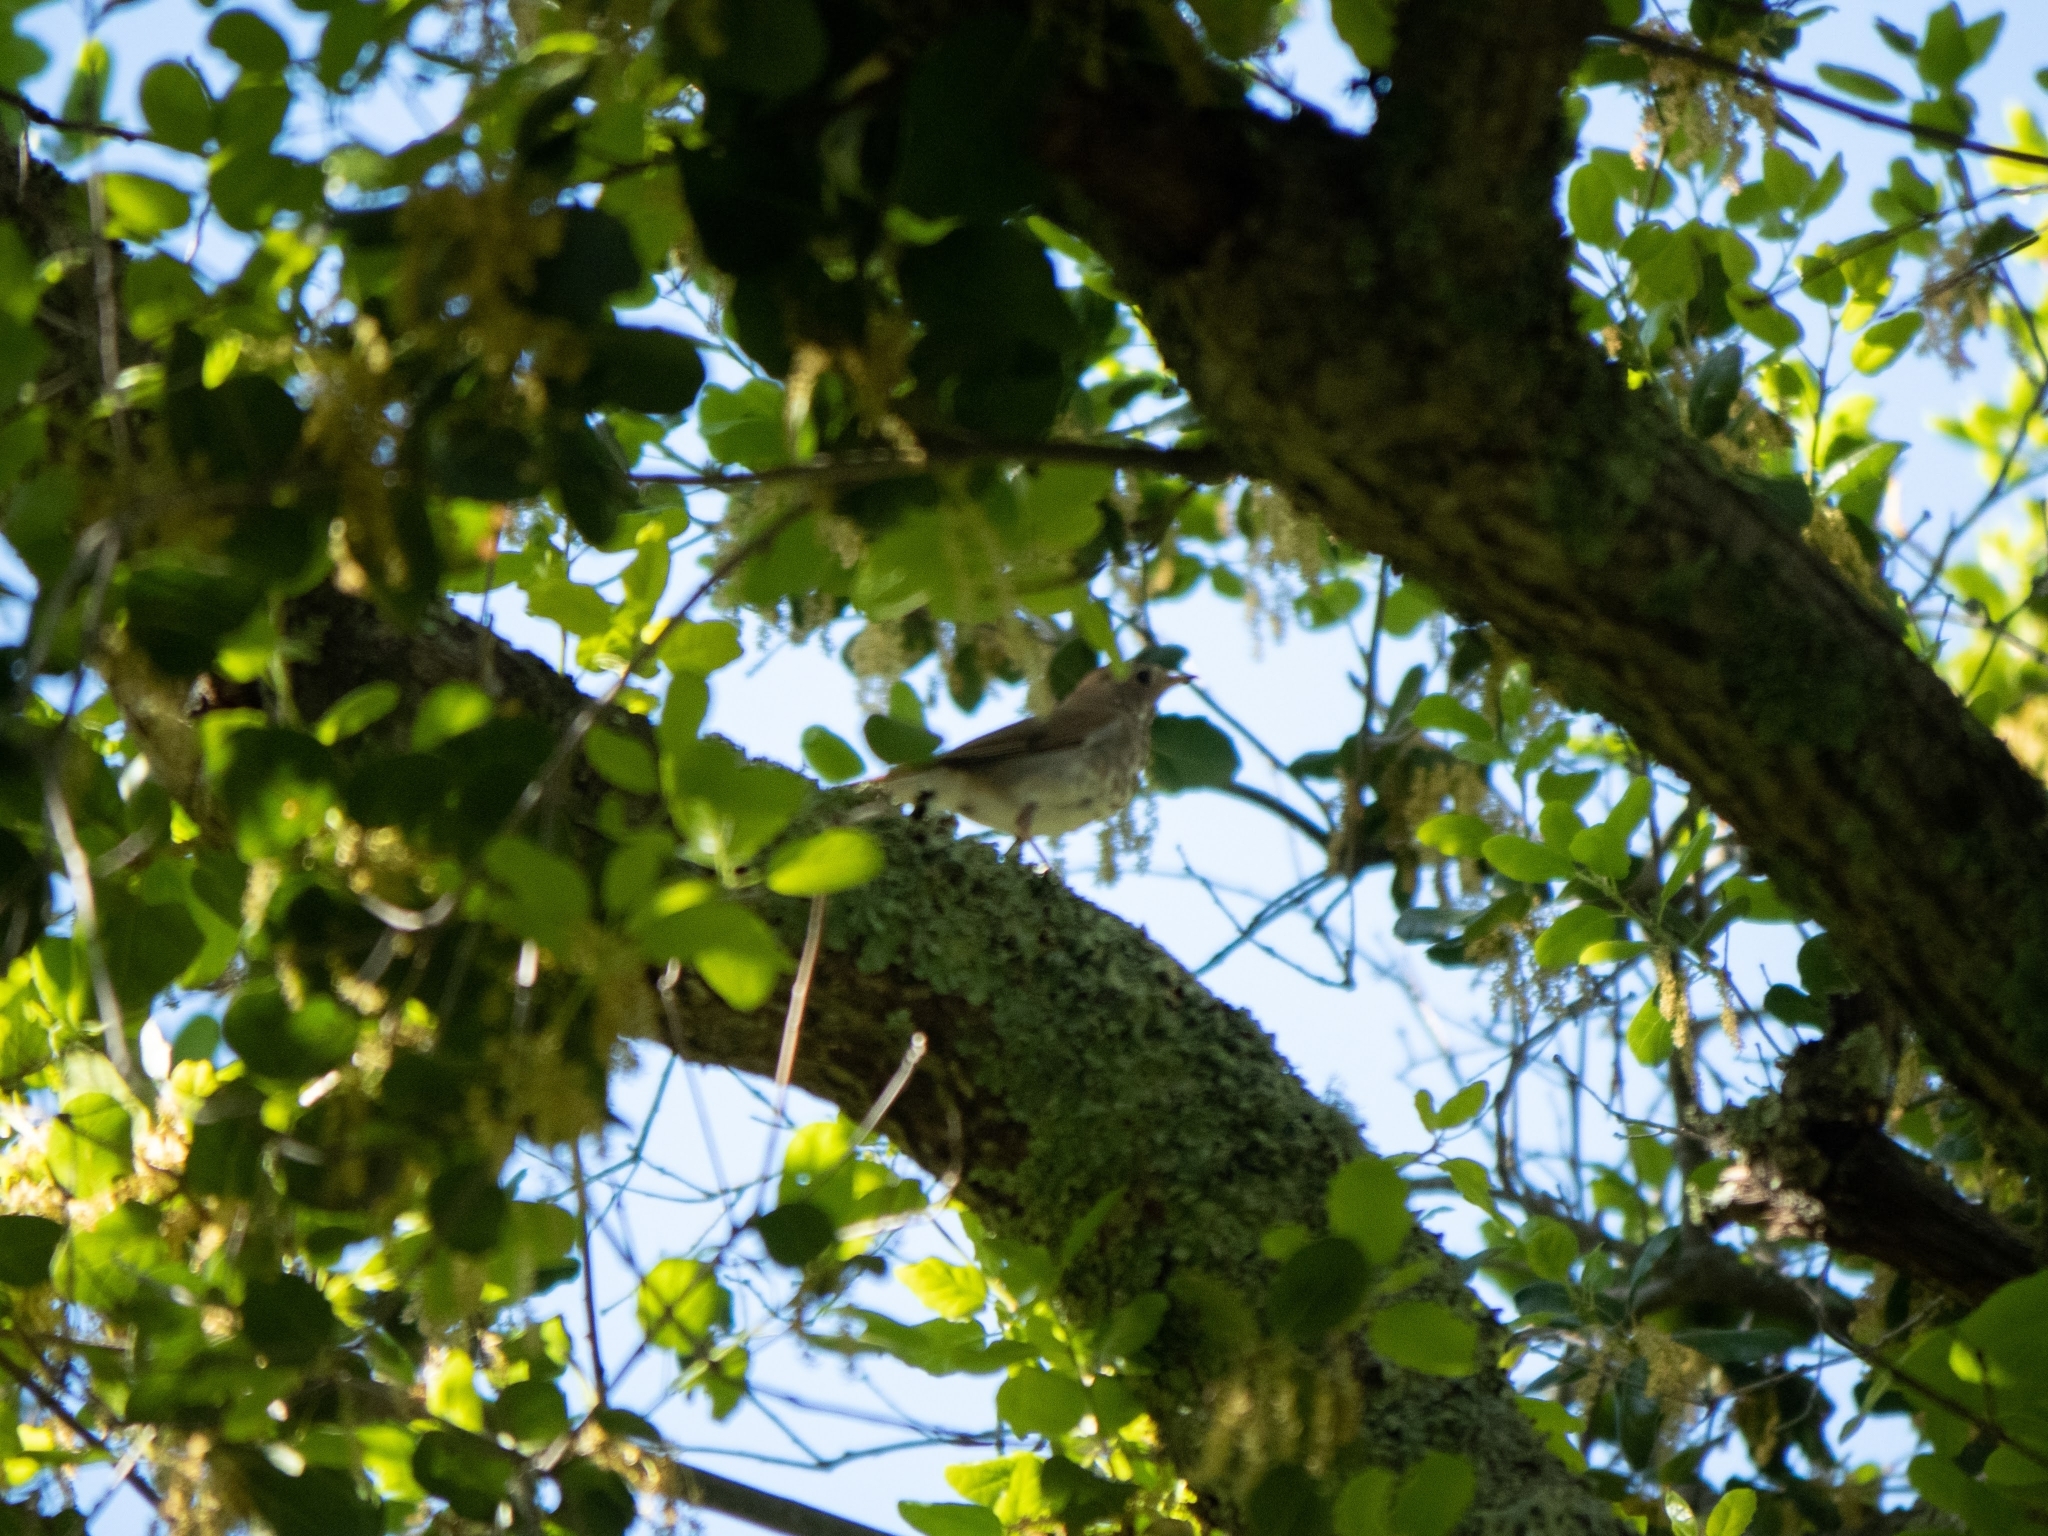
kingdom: Animalia
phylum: Chordata
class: Aves
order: Passeriformes
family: Turdidae
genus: Catharus
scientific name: Catharus guttatus
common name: Hermit thrush
